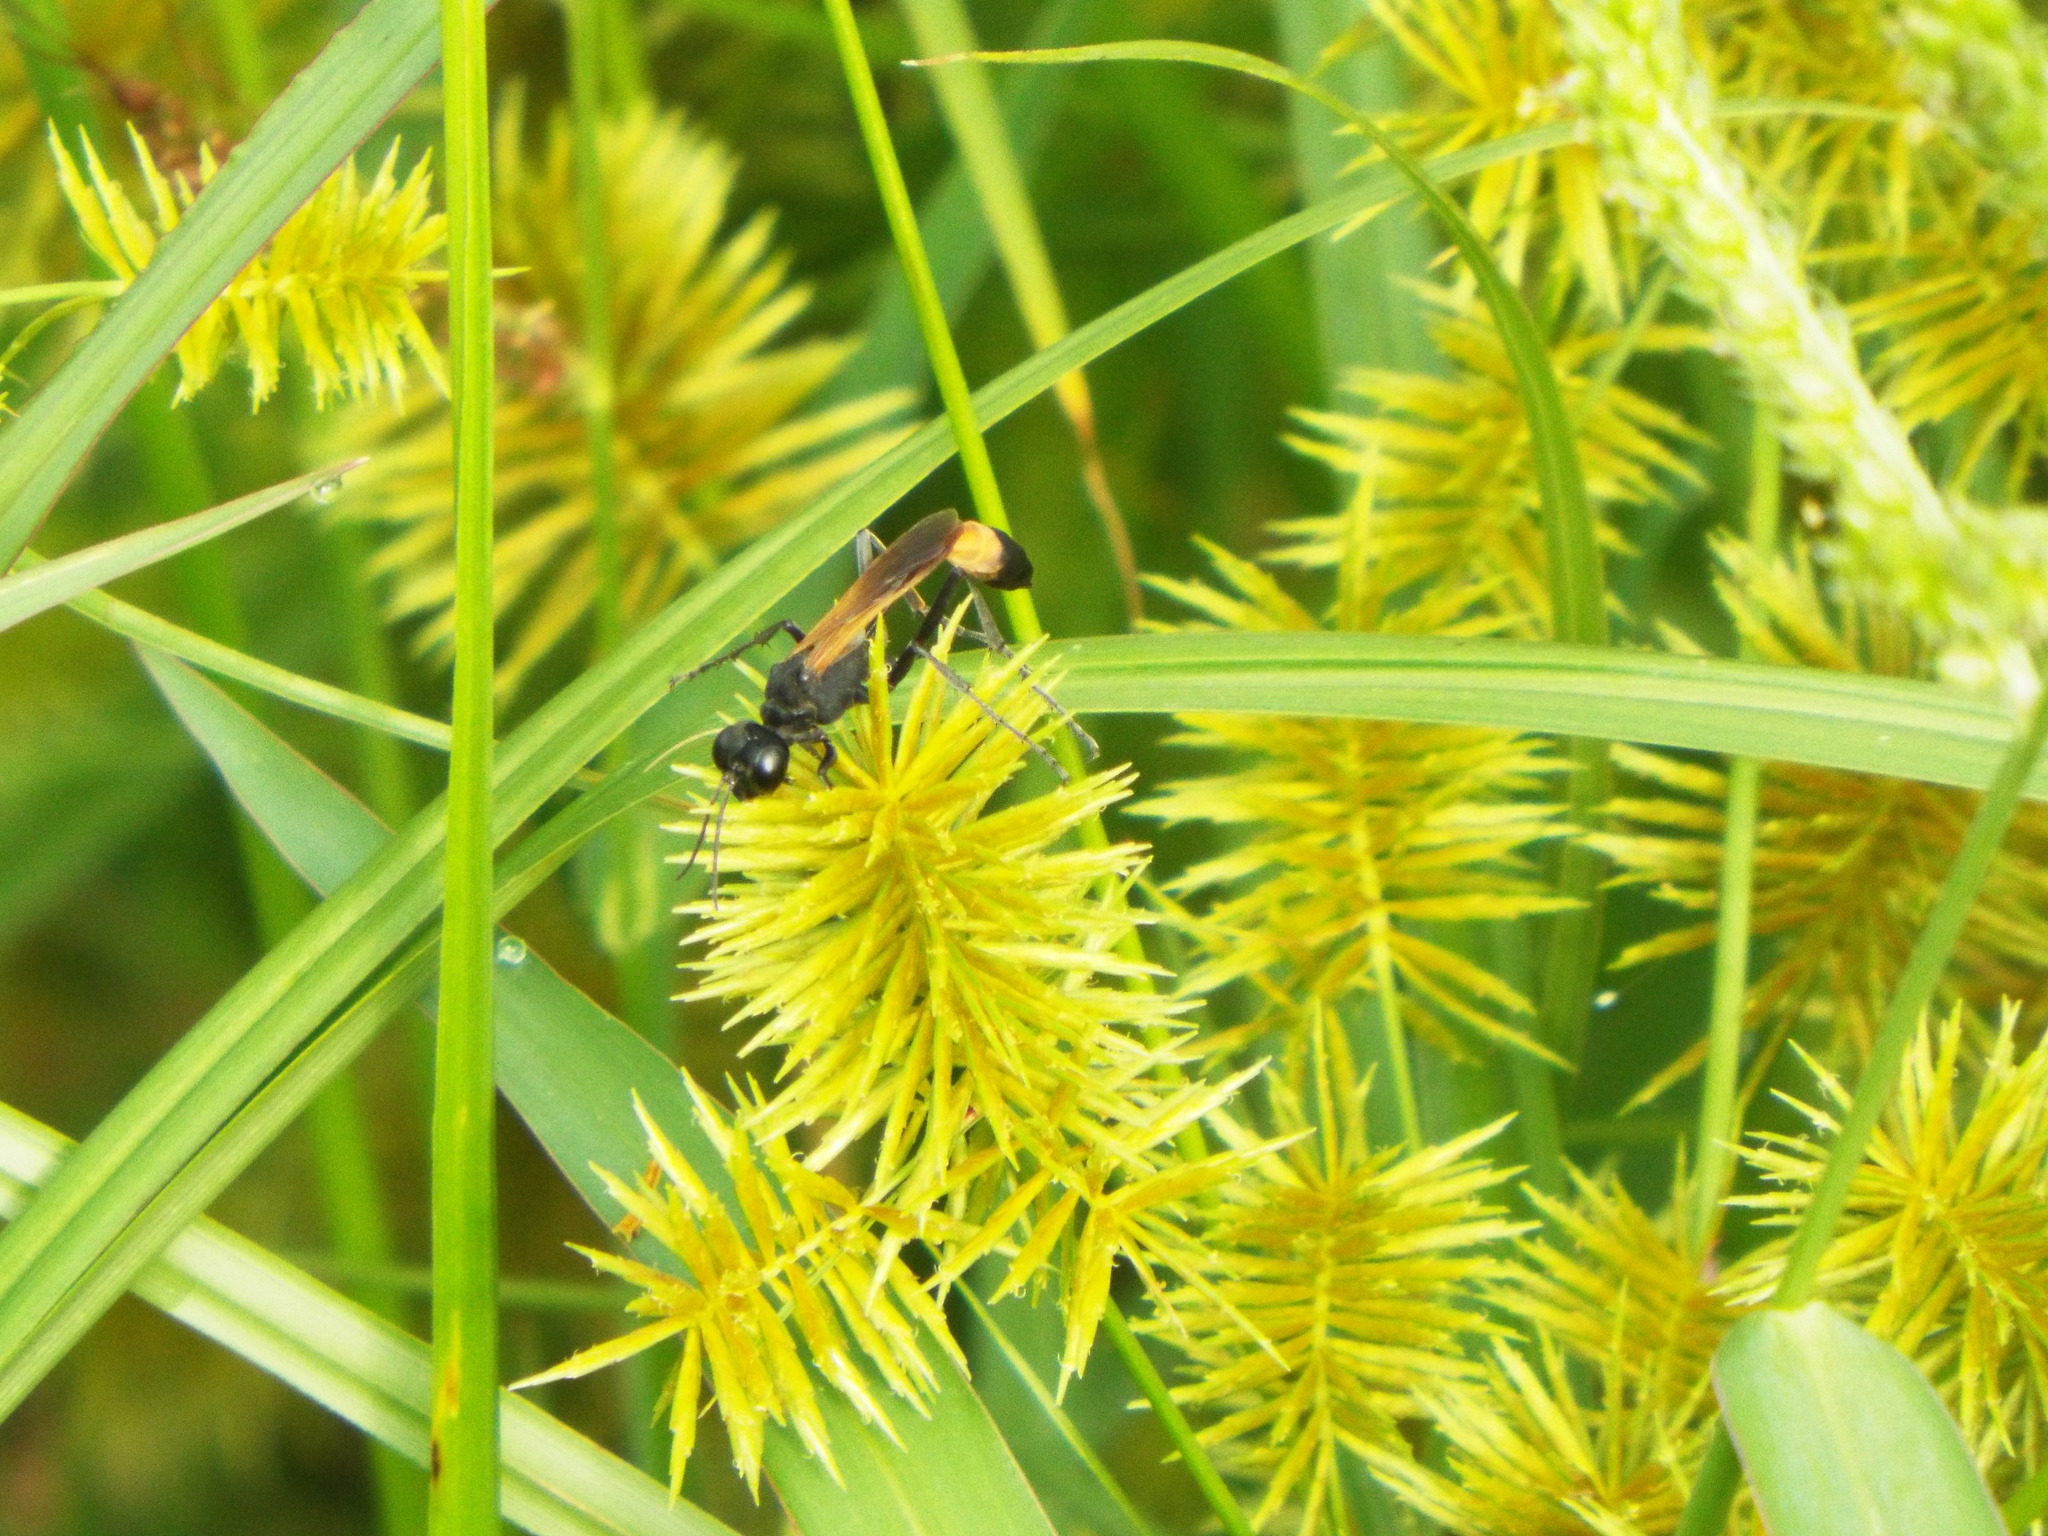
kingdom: Animalia
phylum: Arthropoda
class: Insecta
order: Hymenoptera
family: Sphecidae
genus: Ammophila
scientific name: Ammophila pictipennis
